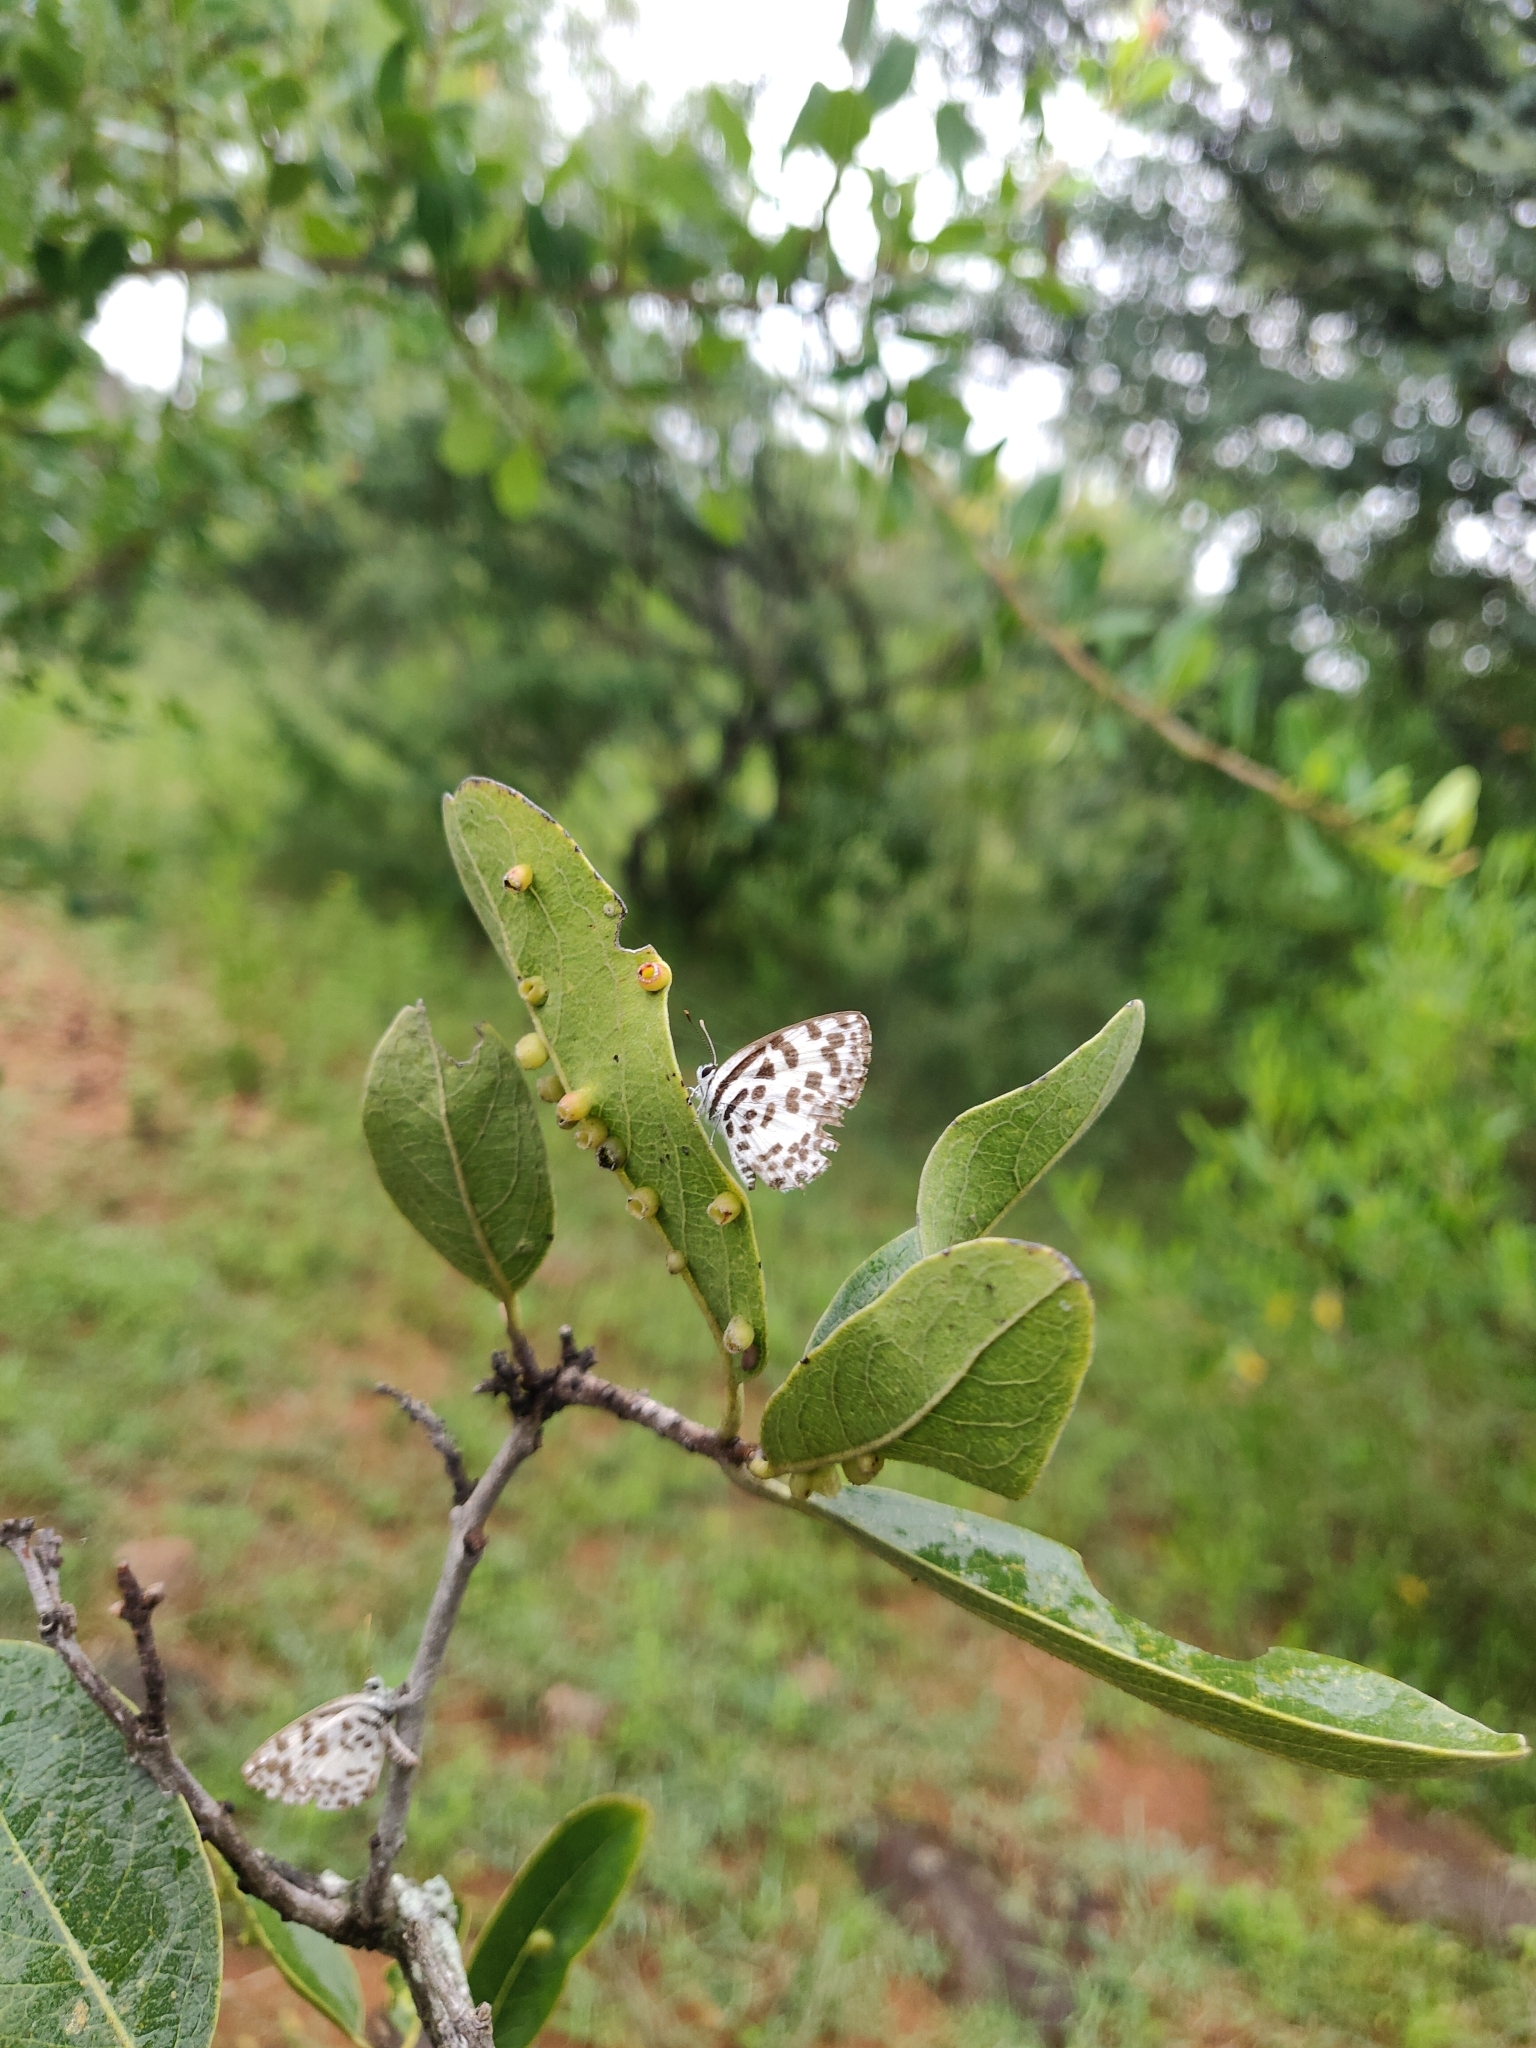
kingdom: Animalia
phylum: Arthropoda
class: Insecta
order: Lepidoptera
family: Lycaenidae
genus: Castalius
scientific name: Castalius rosimon
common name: Common pierrot
